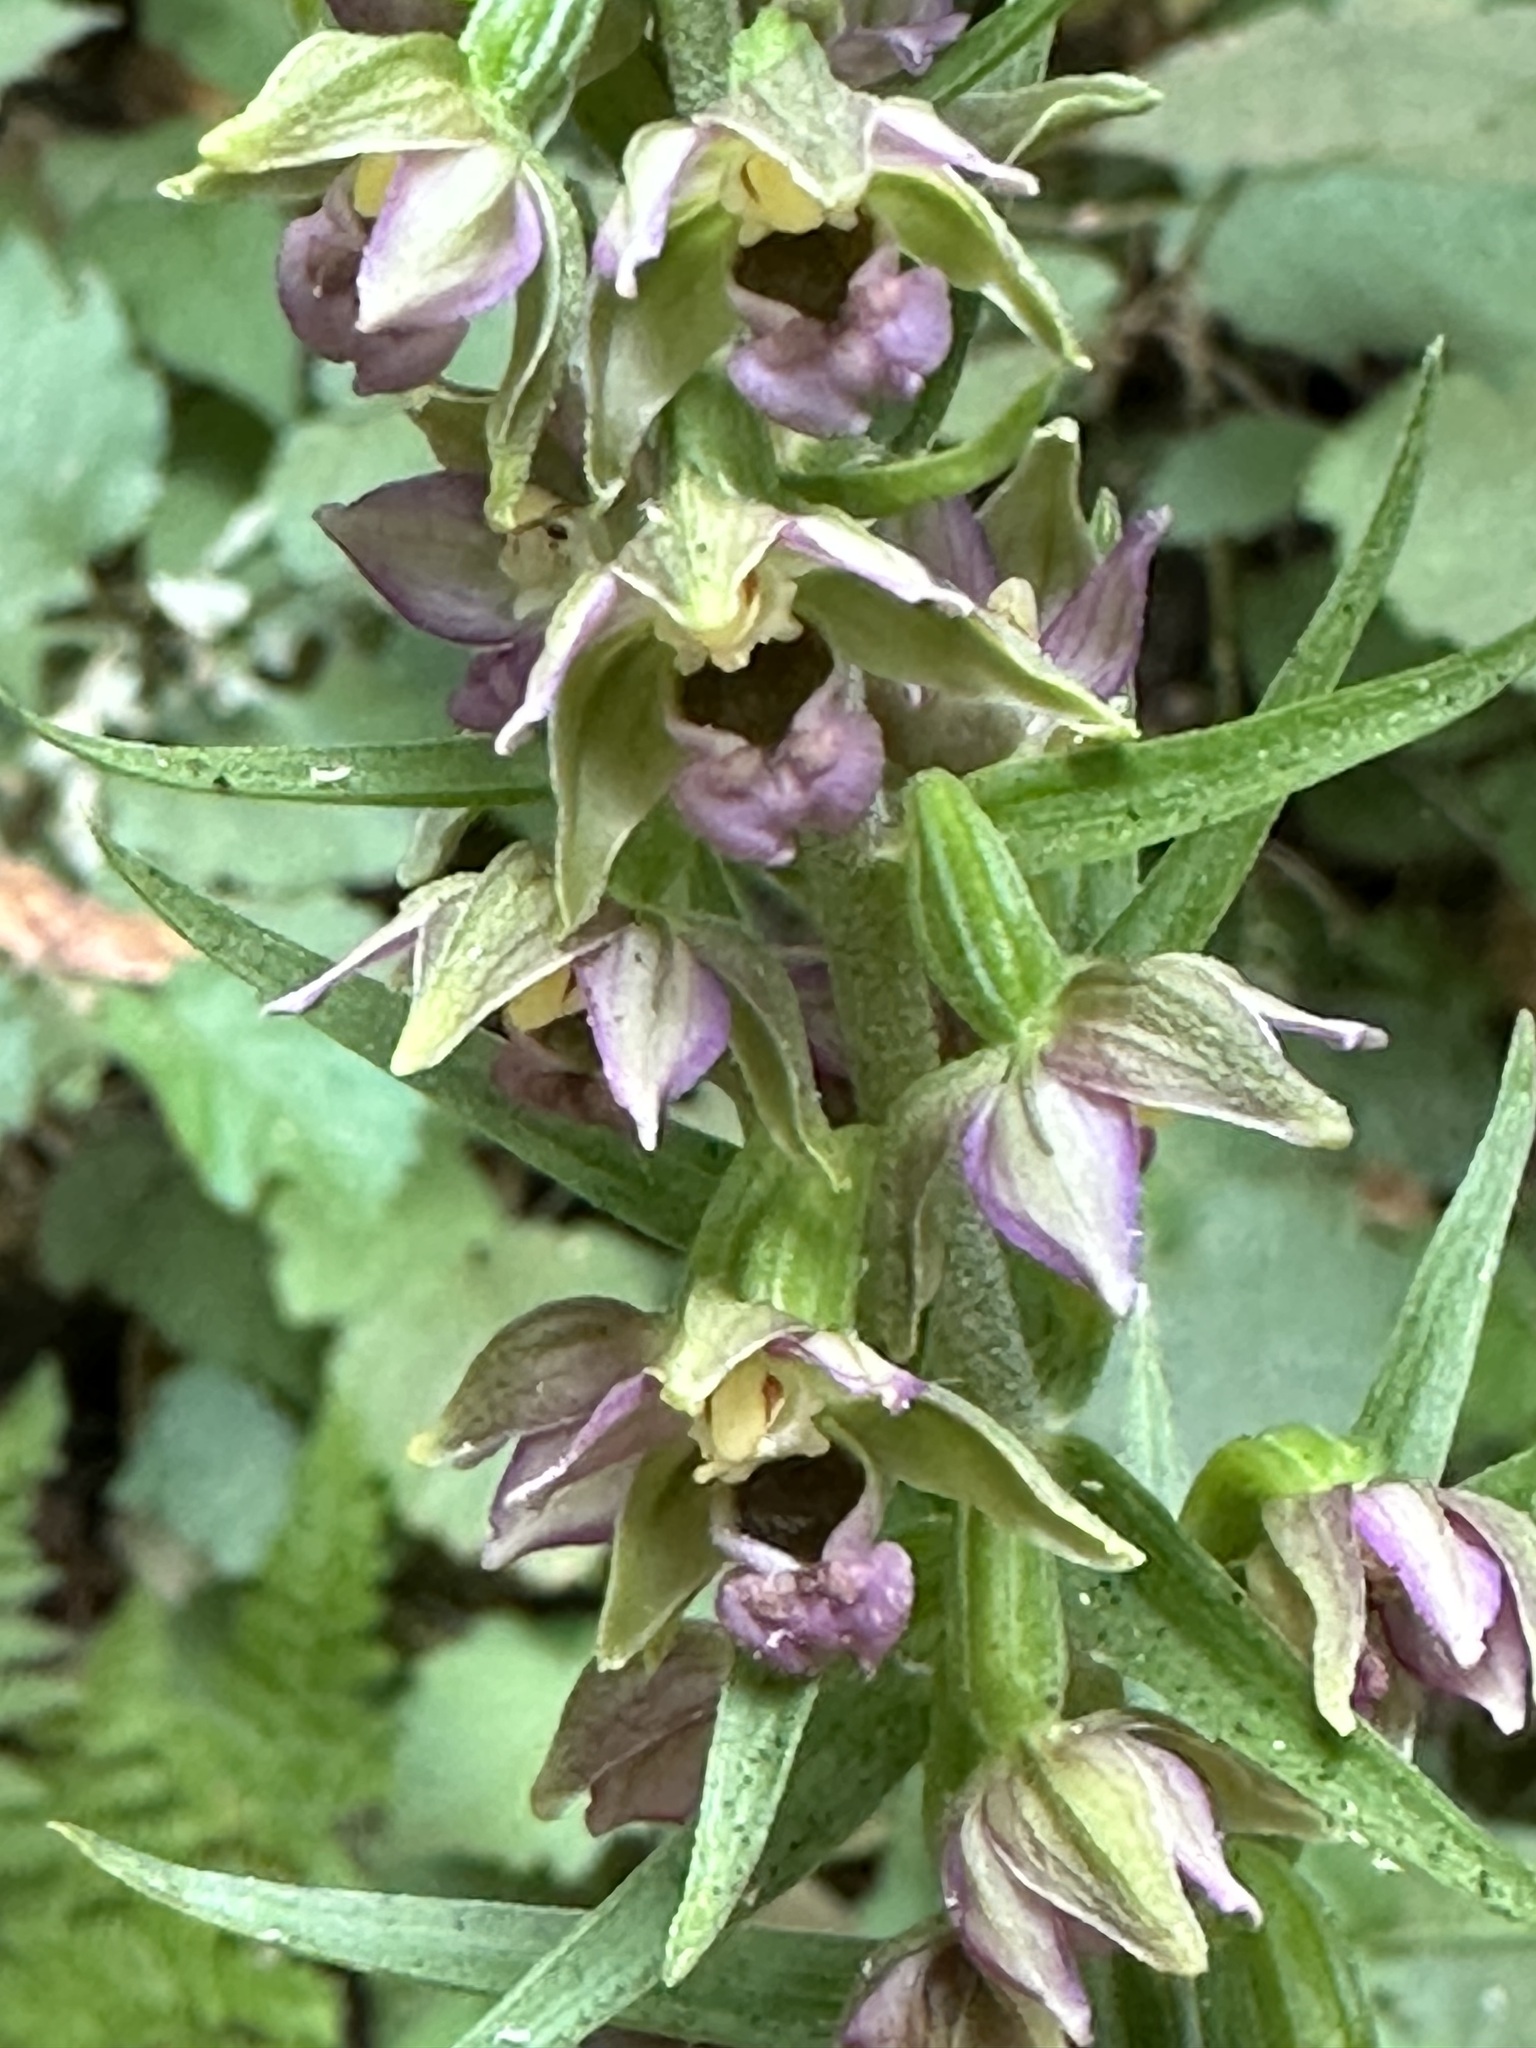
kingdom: Plantae
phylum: Tracheophyta
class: Liliopsida
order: Asparagales
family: Orchidaceae
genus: Epipactis
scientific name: Epipactis helleborine
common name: Broad-leaved helleborine
